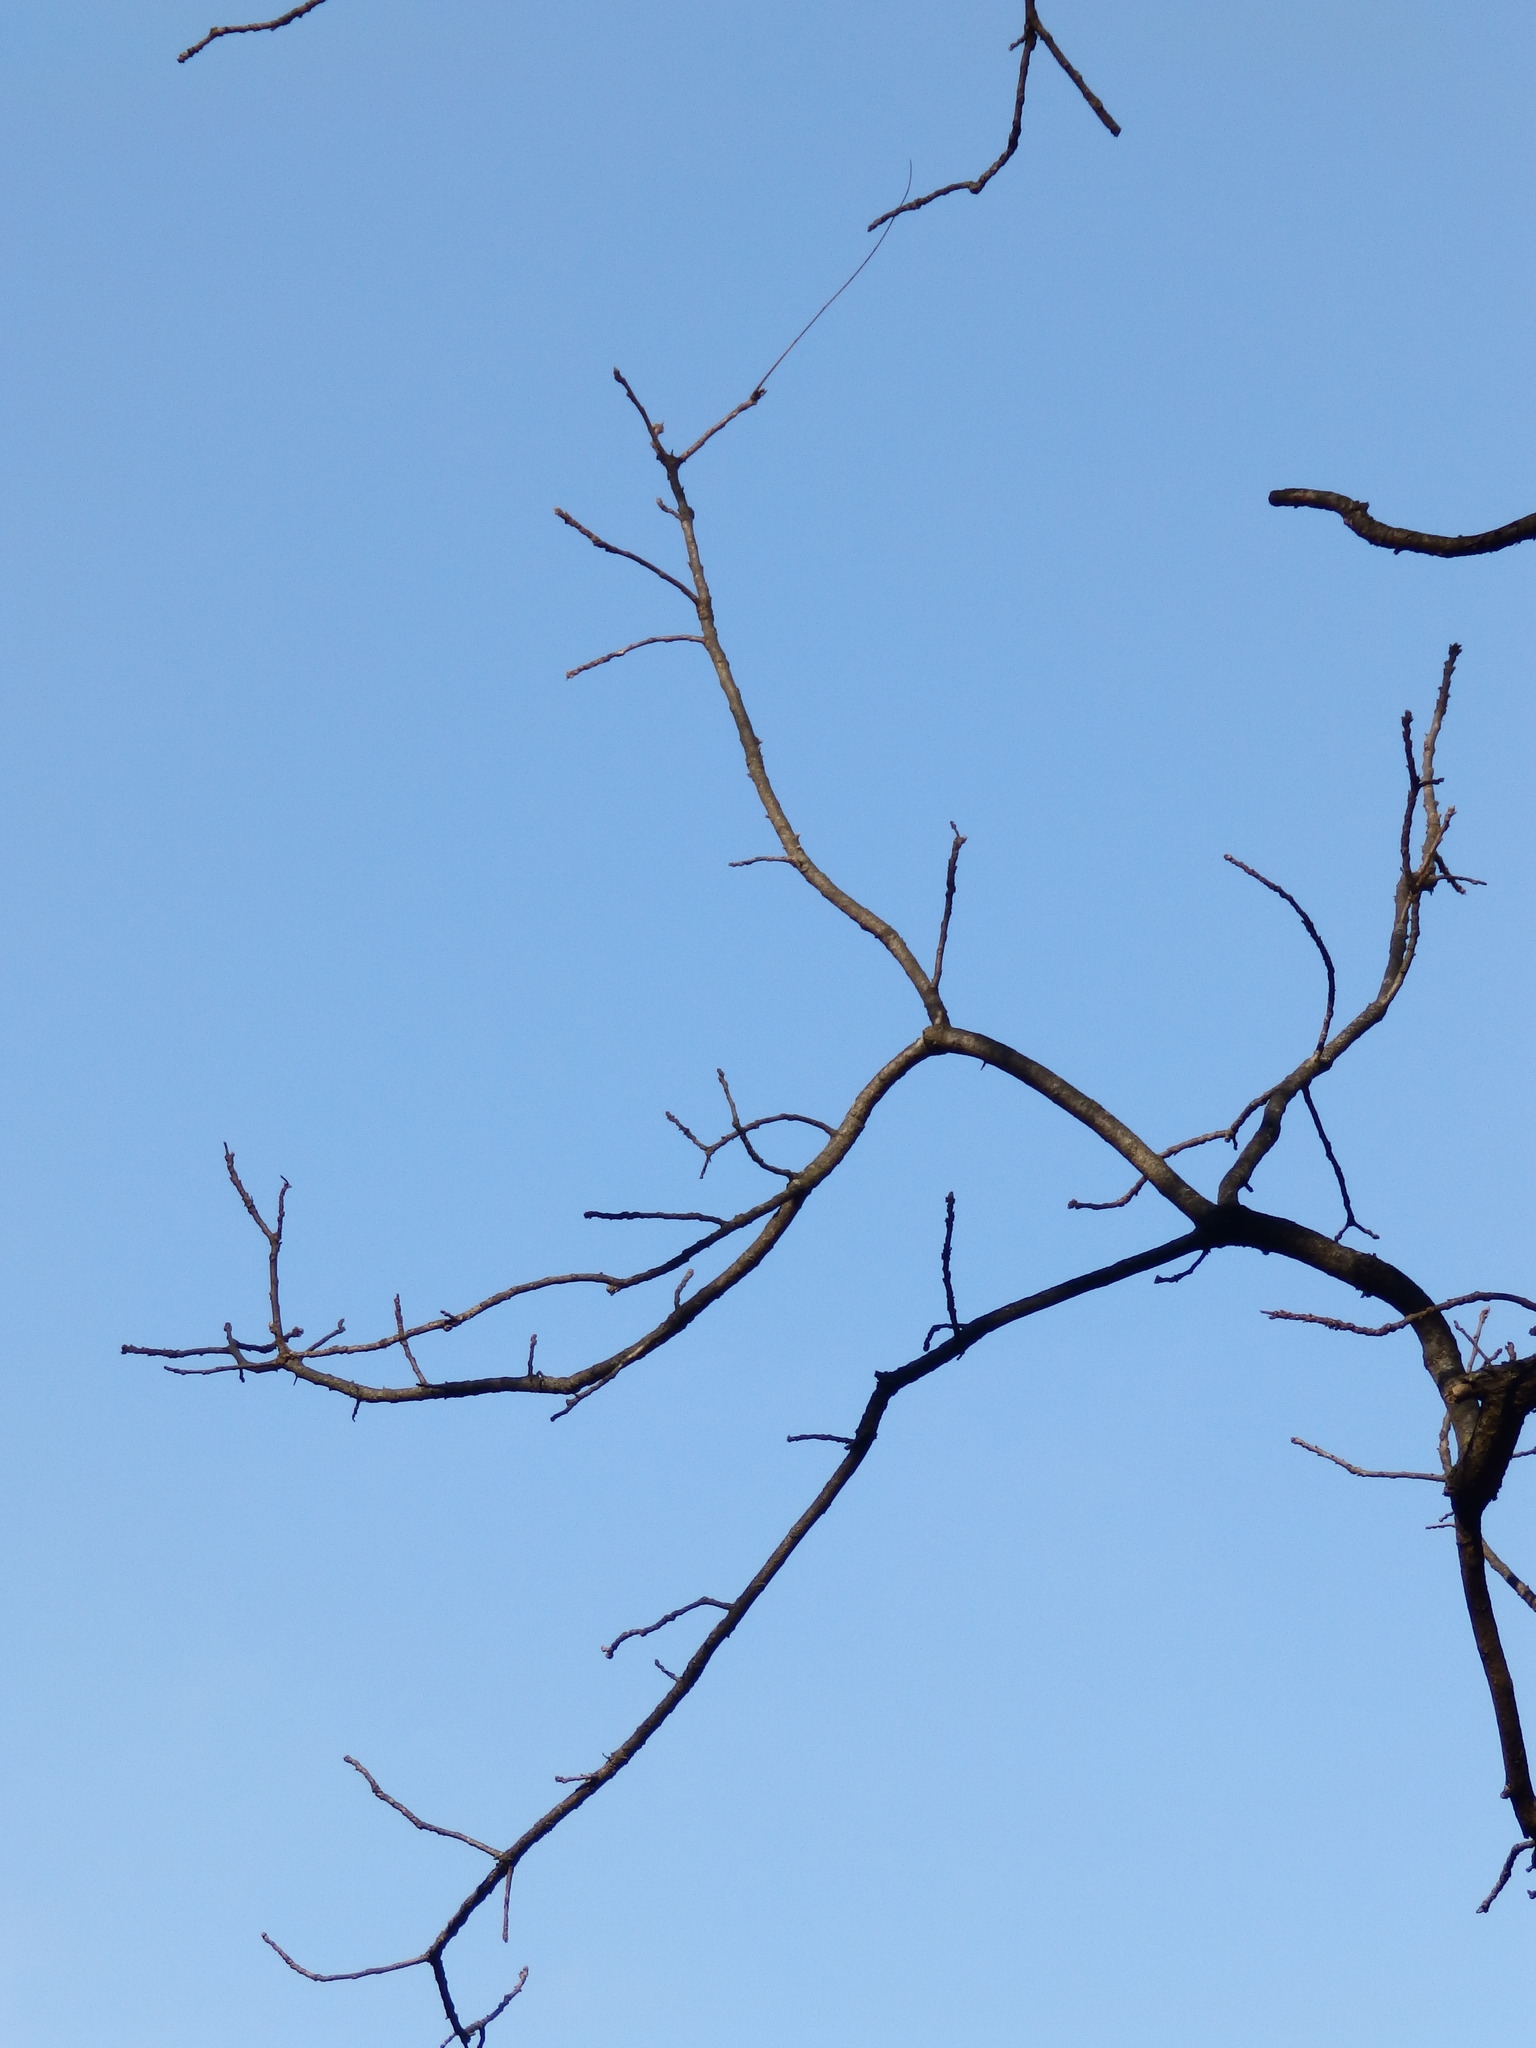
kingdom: Plantae
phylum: Tracheophyta
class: Magnoliopsida
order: Fagales
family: Juglandaceae
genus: Juglans
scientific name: Juglans nigra
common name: Black walnut
